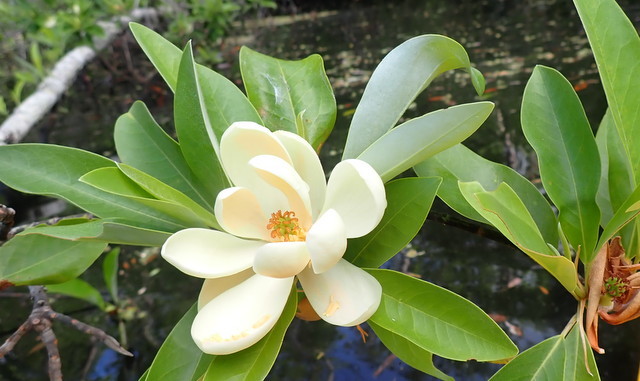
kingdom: Plantae
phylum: Tracheophyta
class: Magnoliopsida
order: Magnoliales
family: Magnoliaceae
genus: Magnolia
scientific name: Magnolia virginiana
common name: Swamp bay
